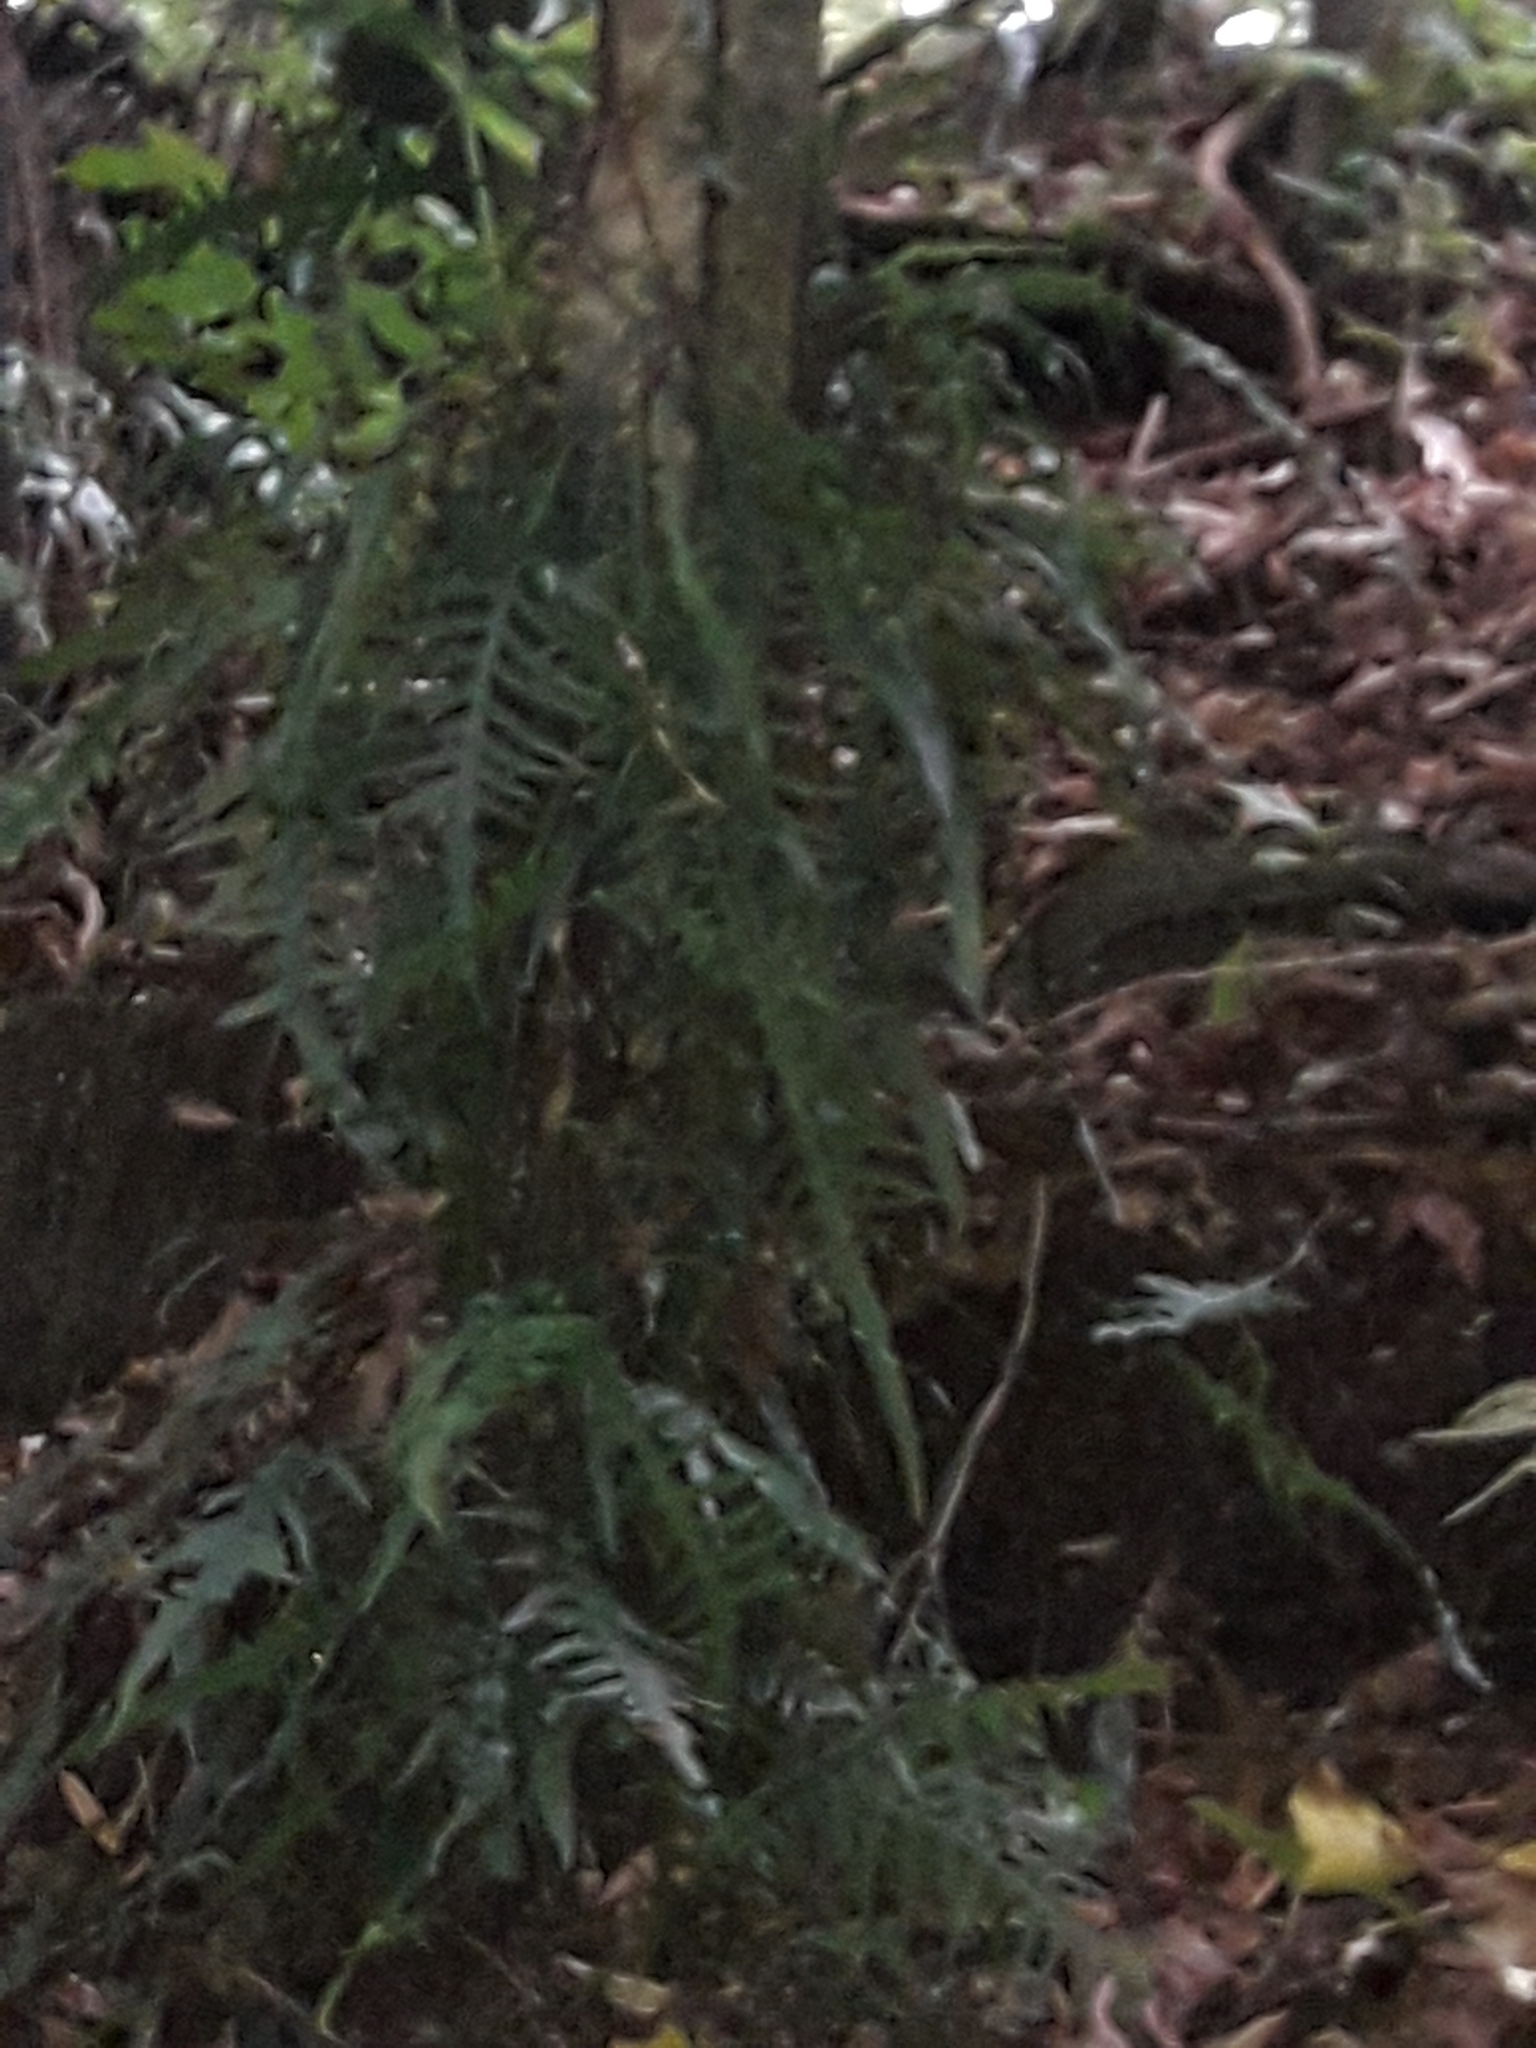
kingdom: Plantae
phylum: Tracheophyta
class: Polypodiopsida
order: Polypodiales
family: Polypodiaceae
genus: Lecanopteris
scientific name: Lecanopteris scandens
